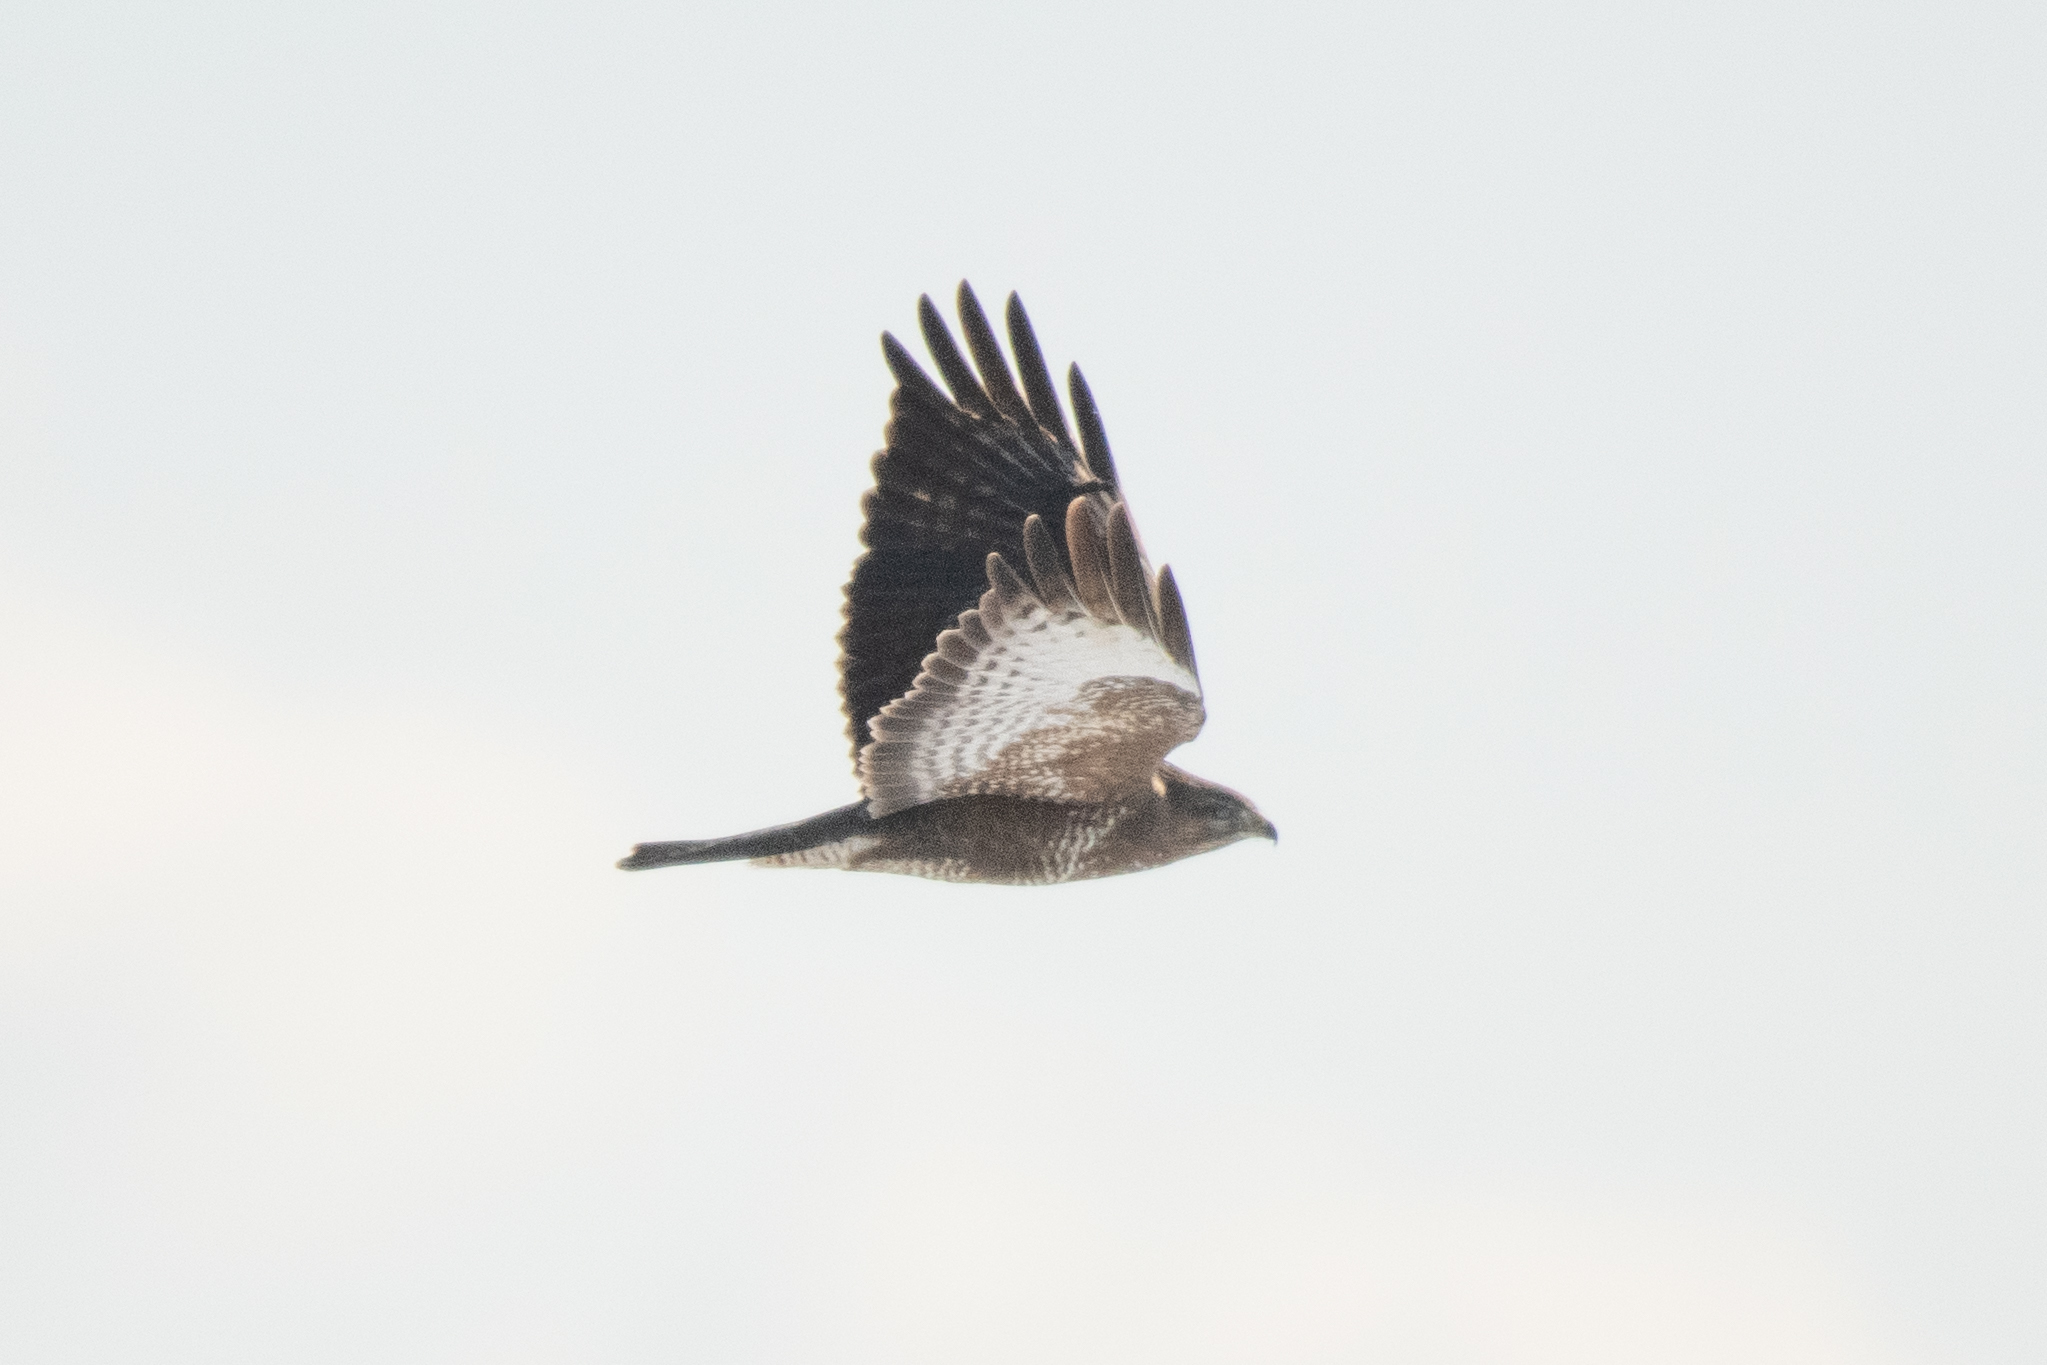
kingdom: Animalia
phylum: Chordata
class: Aves
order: Accipitriformes
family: Accipitridae
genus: Buteo
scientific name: Buteo buteo
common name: Common buzzard
